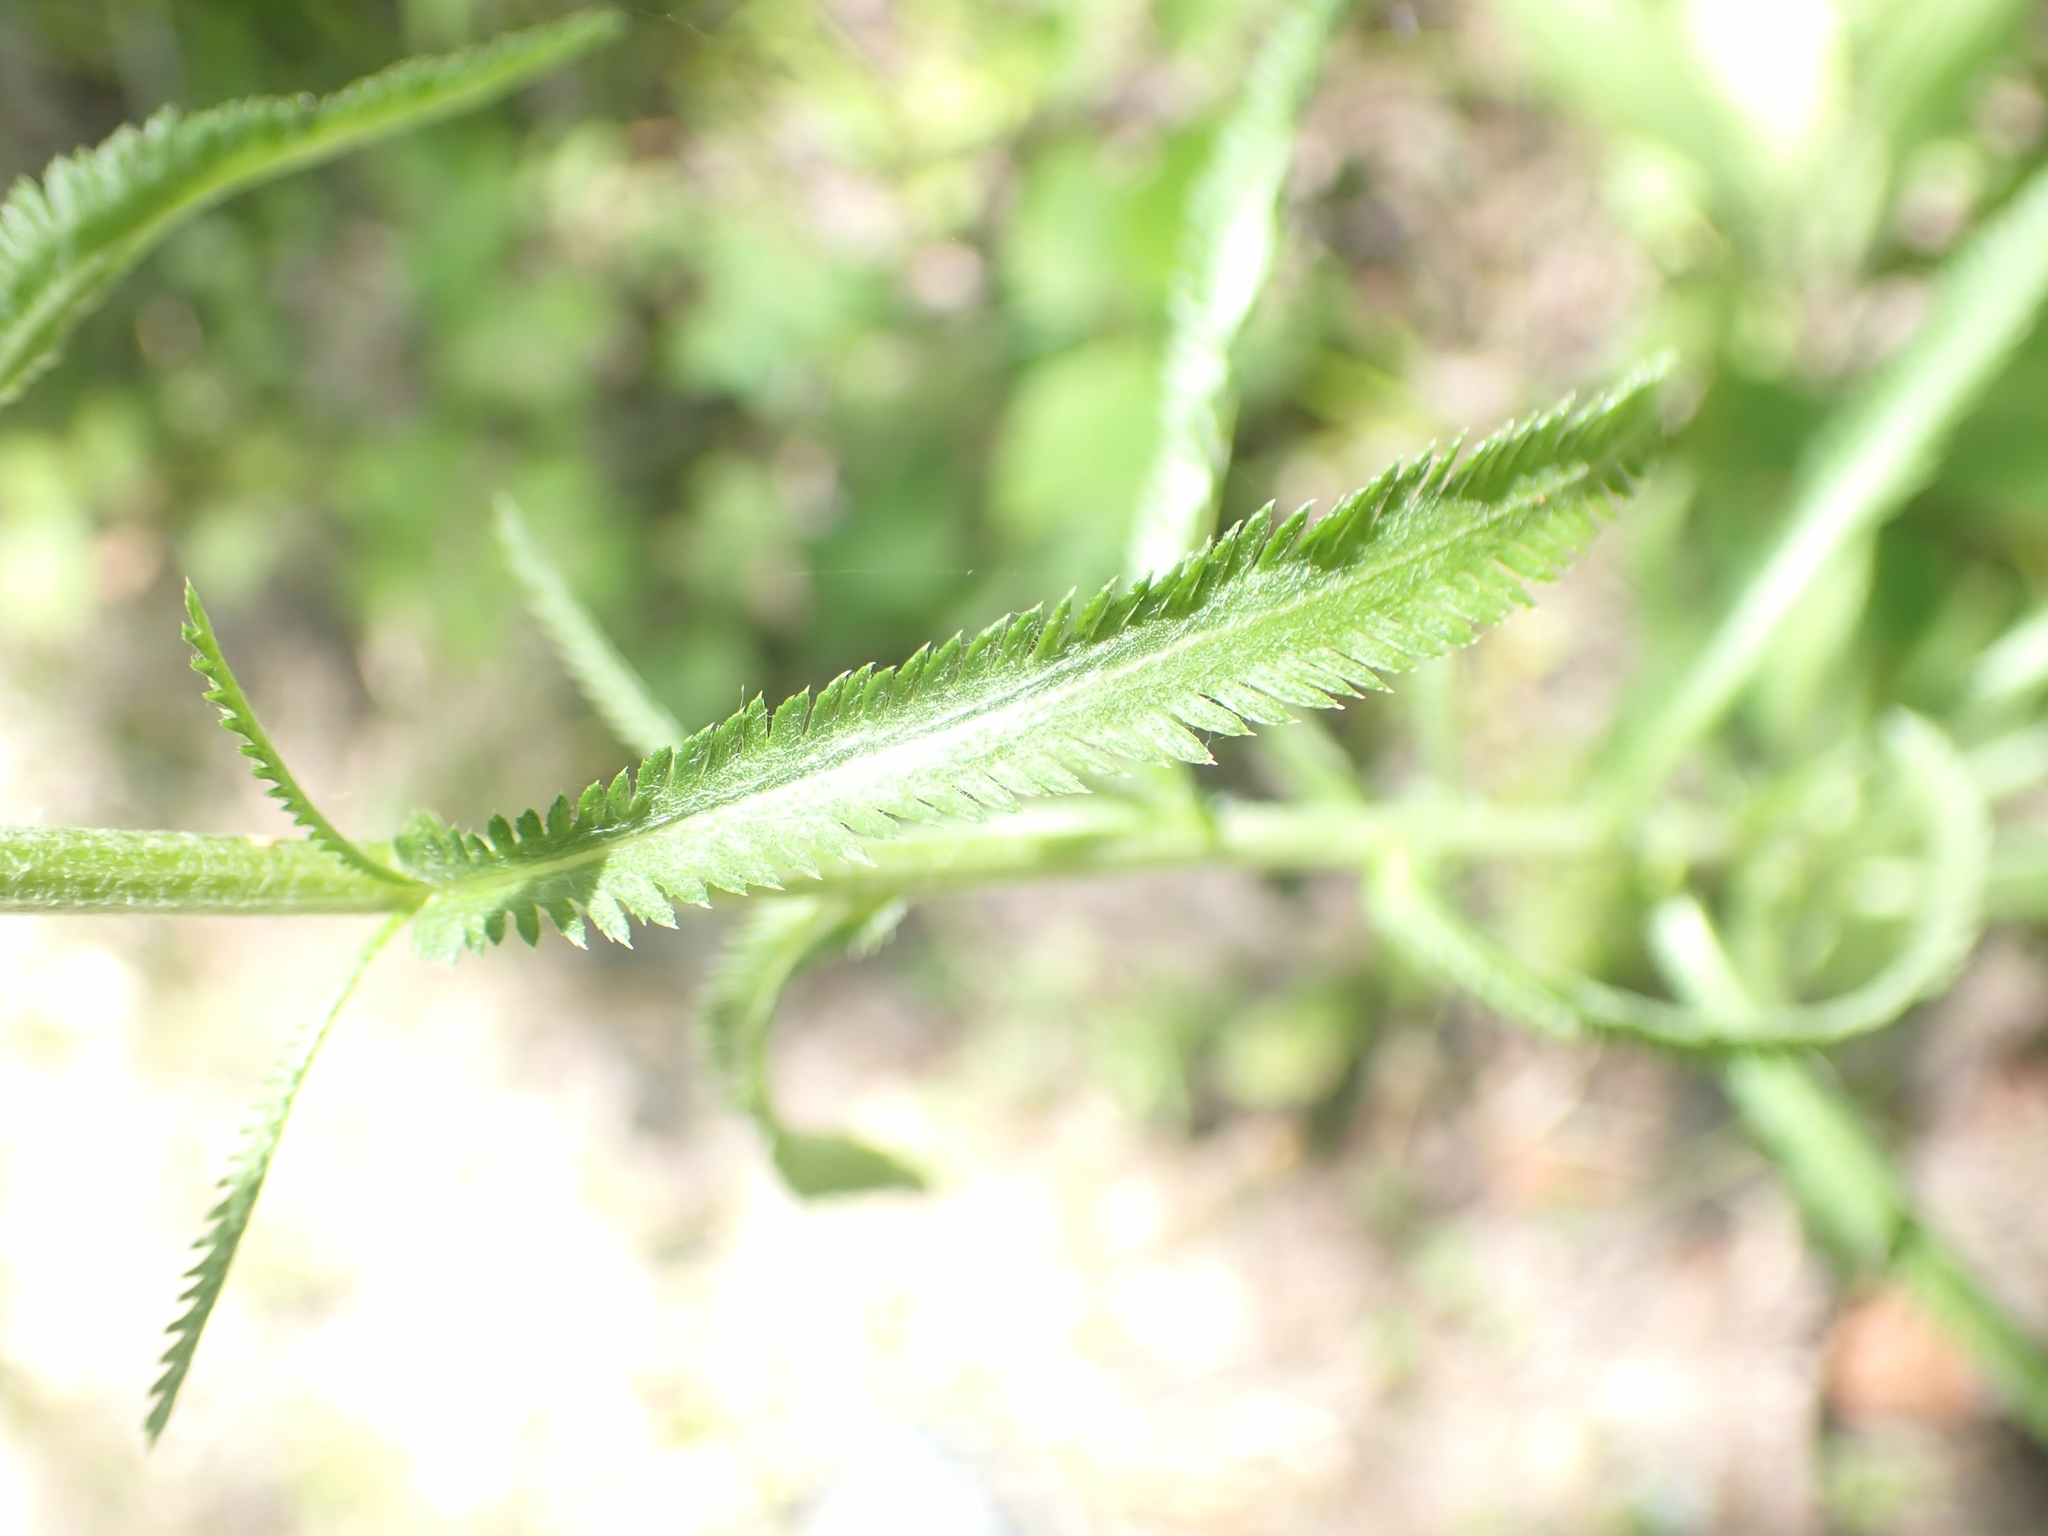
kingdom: Plantae
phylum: Tracheophyta
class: Magnoliopsida
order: Asterales
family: Asteraceae
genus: Achillea
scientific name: Achillea alpina
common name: Siberian yarrow
